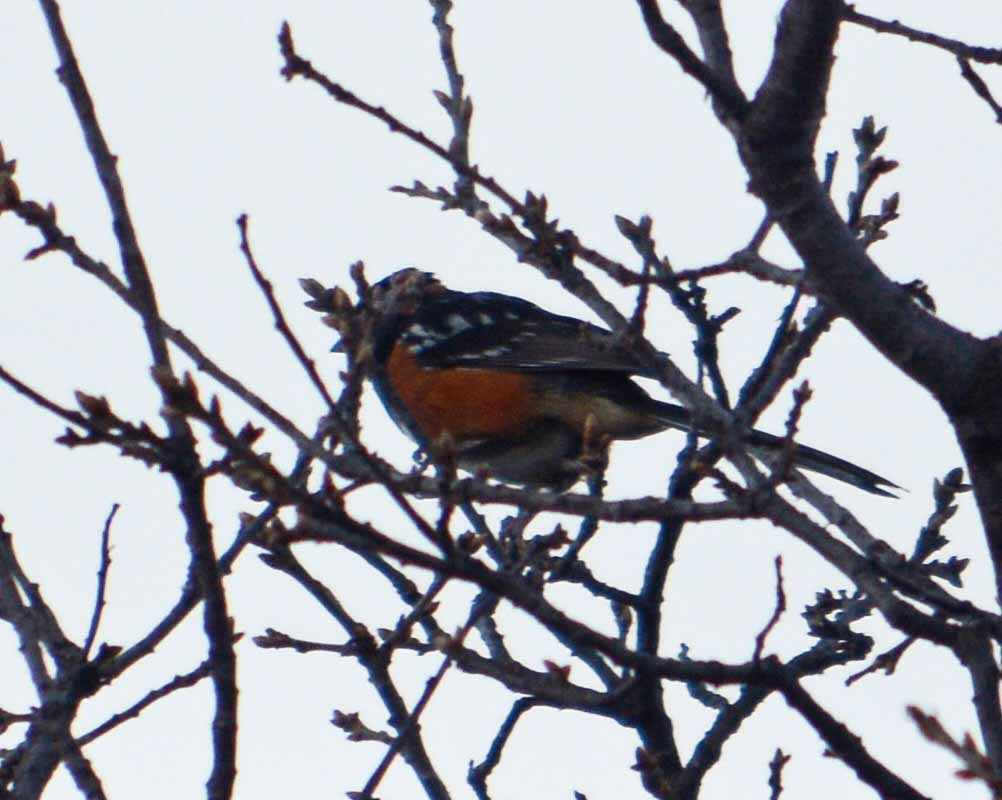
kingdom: Animalia
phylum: Chordata
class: Aves
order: Passeriformes
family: Passerellidae
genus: Pipilo
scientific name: Pipilo maculatus
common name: Spotted towhee
